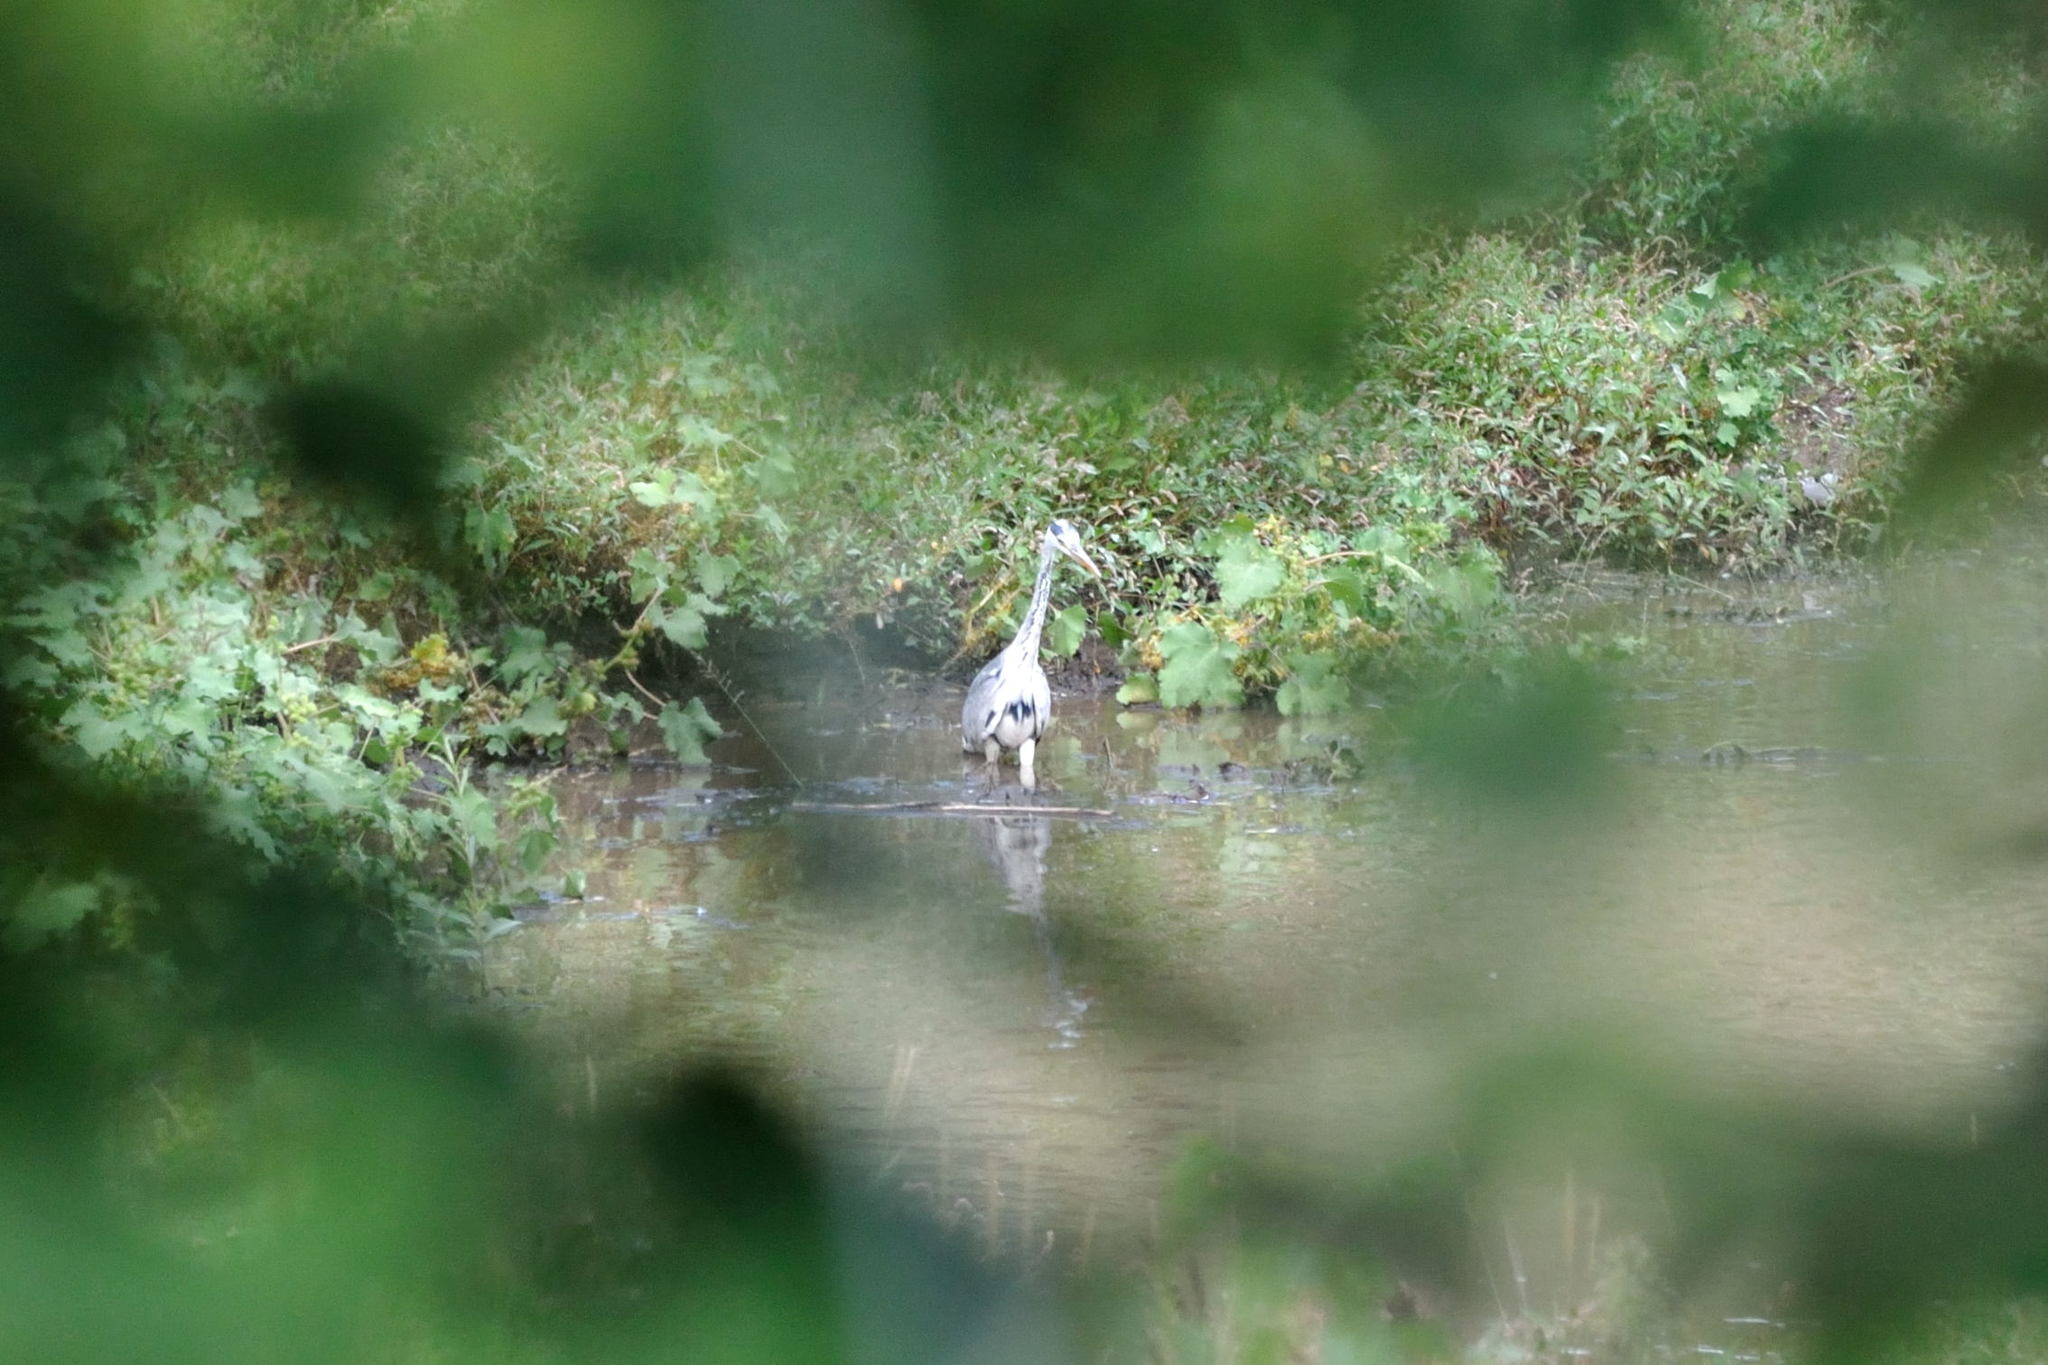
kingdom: Animalia
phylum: Chordata
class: Aves
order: Pelecaniformes
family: Ardeidae
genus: Ardea
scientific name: Ardea cinerea
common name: Grey heron
